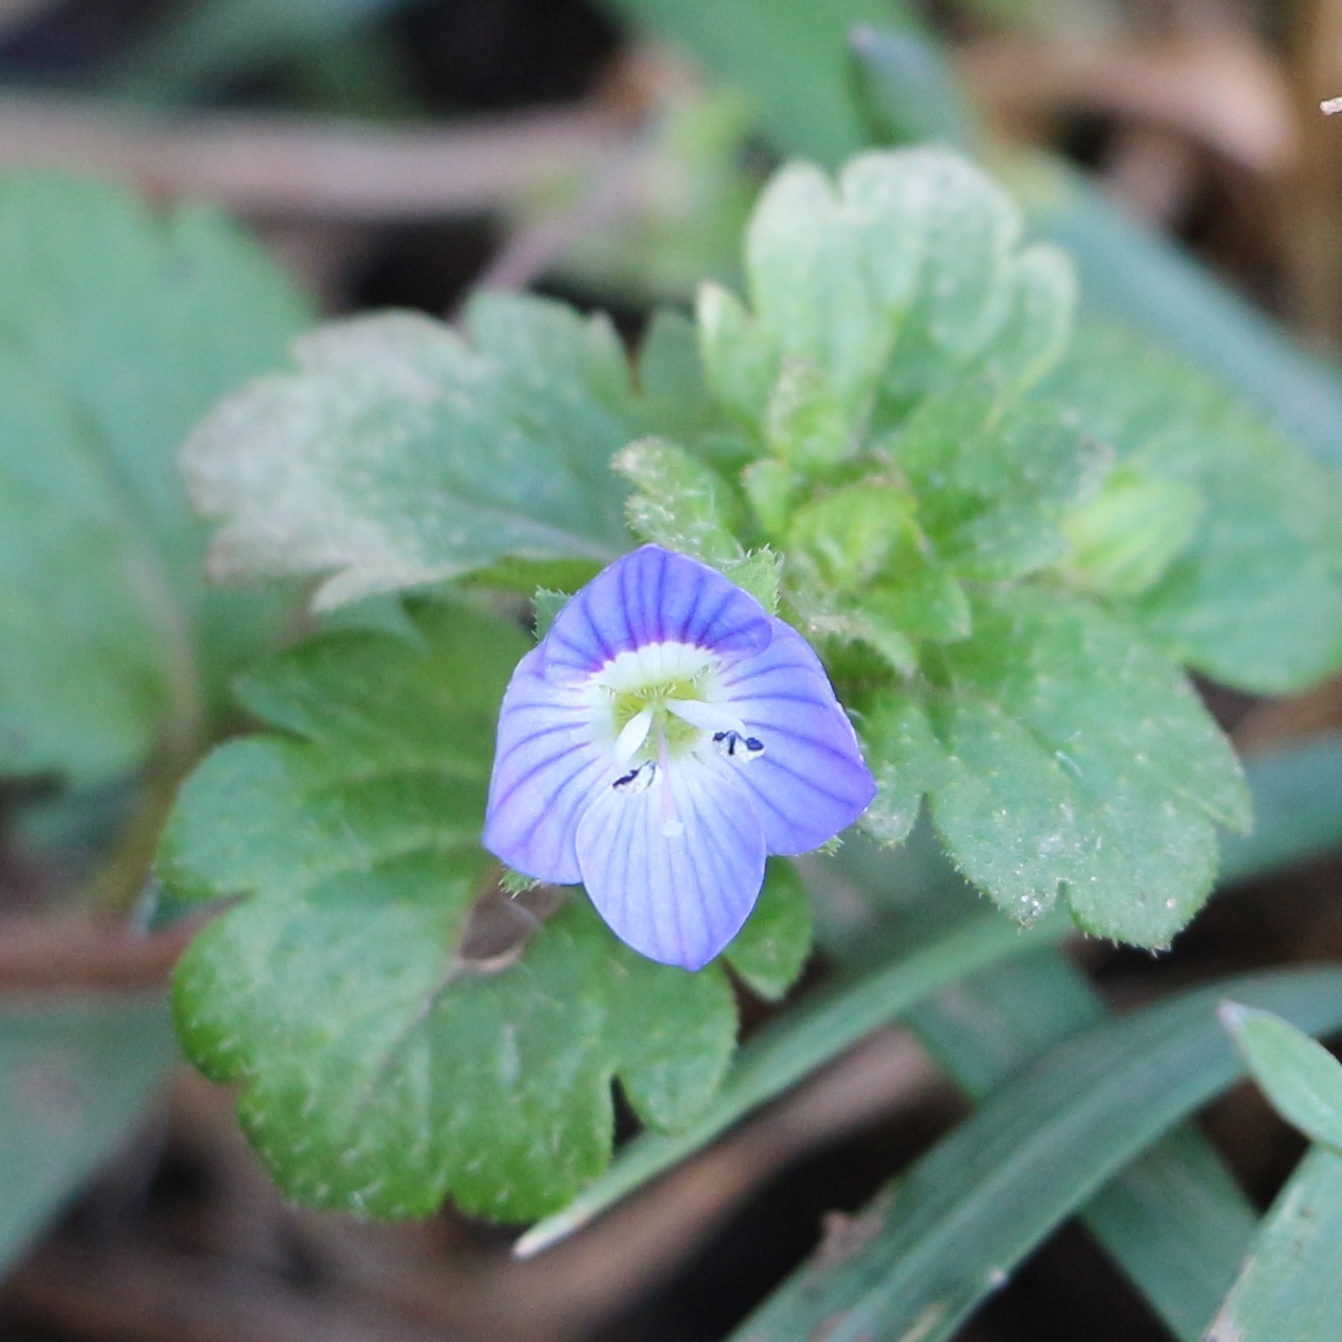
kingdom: Plantae
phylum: Tracheophyta
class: Magnoliopsida
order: Lamiales
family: Plantaginaceae
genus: Veronica
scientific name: Veronica persica
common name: Common field-speedwell
